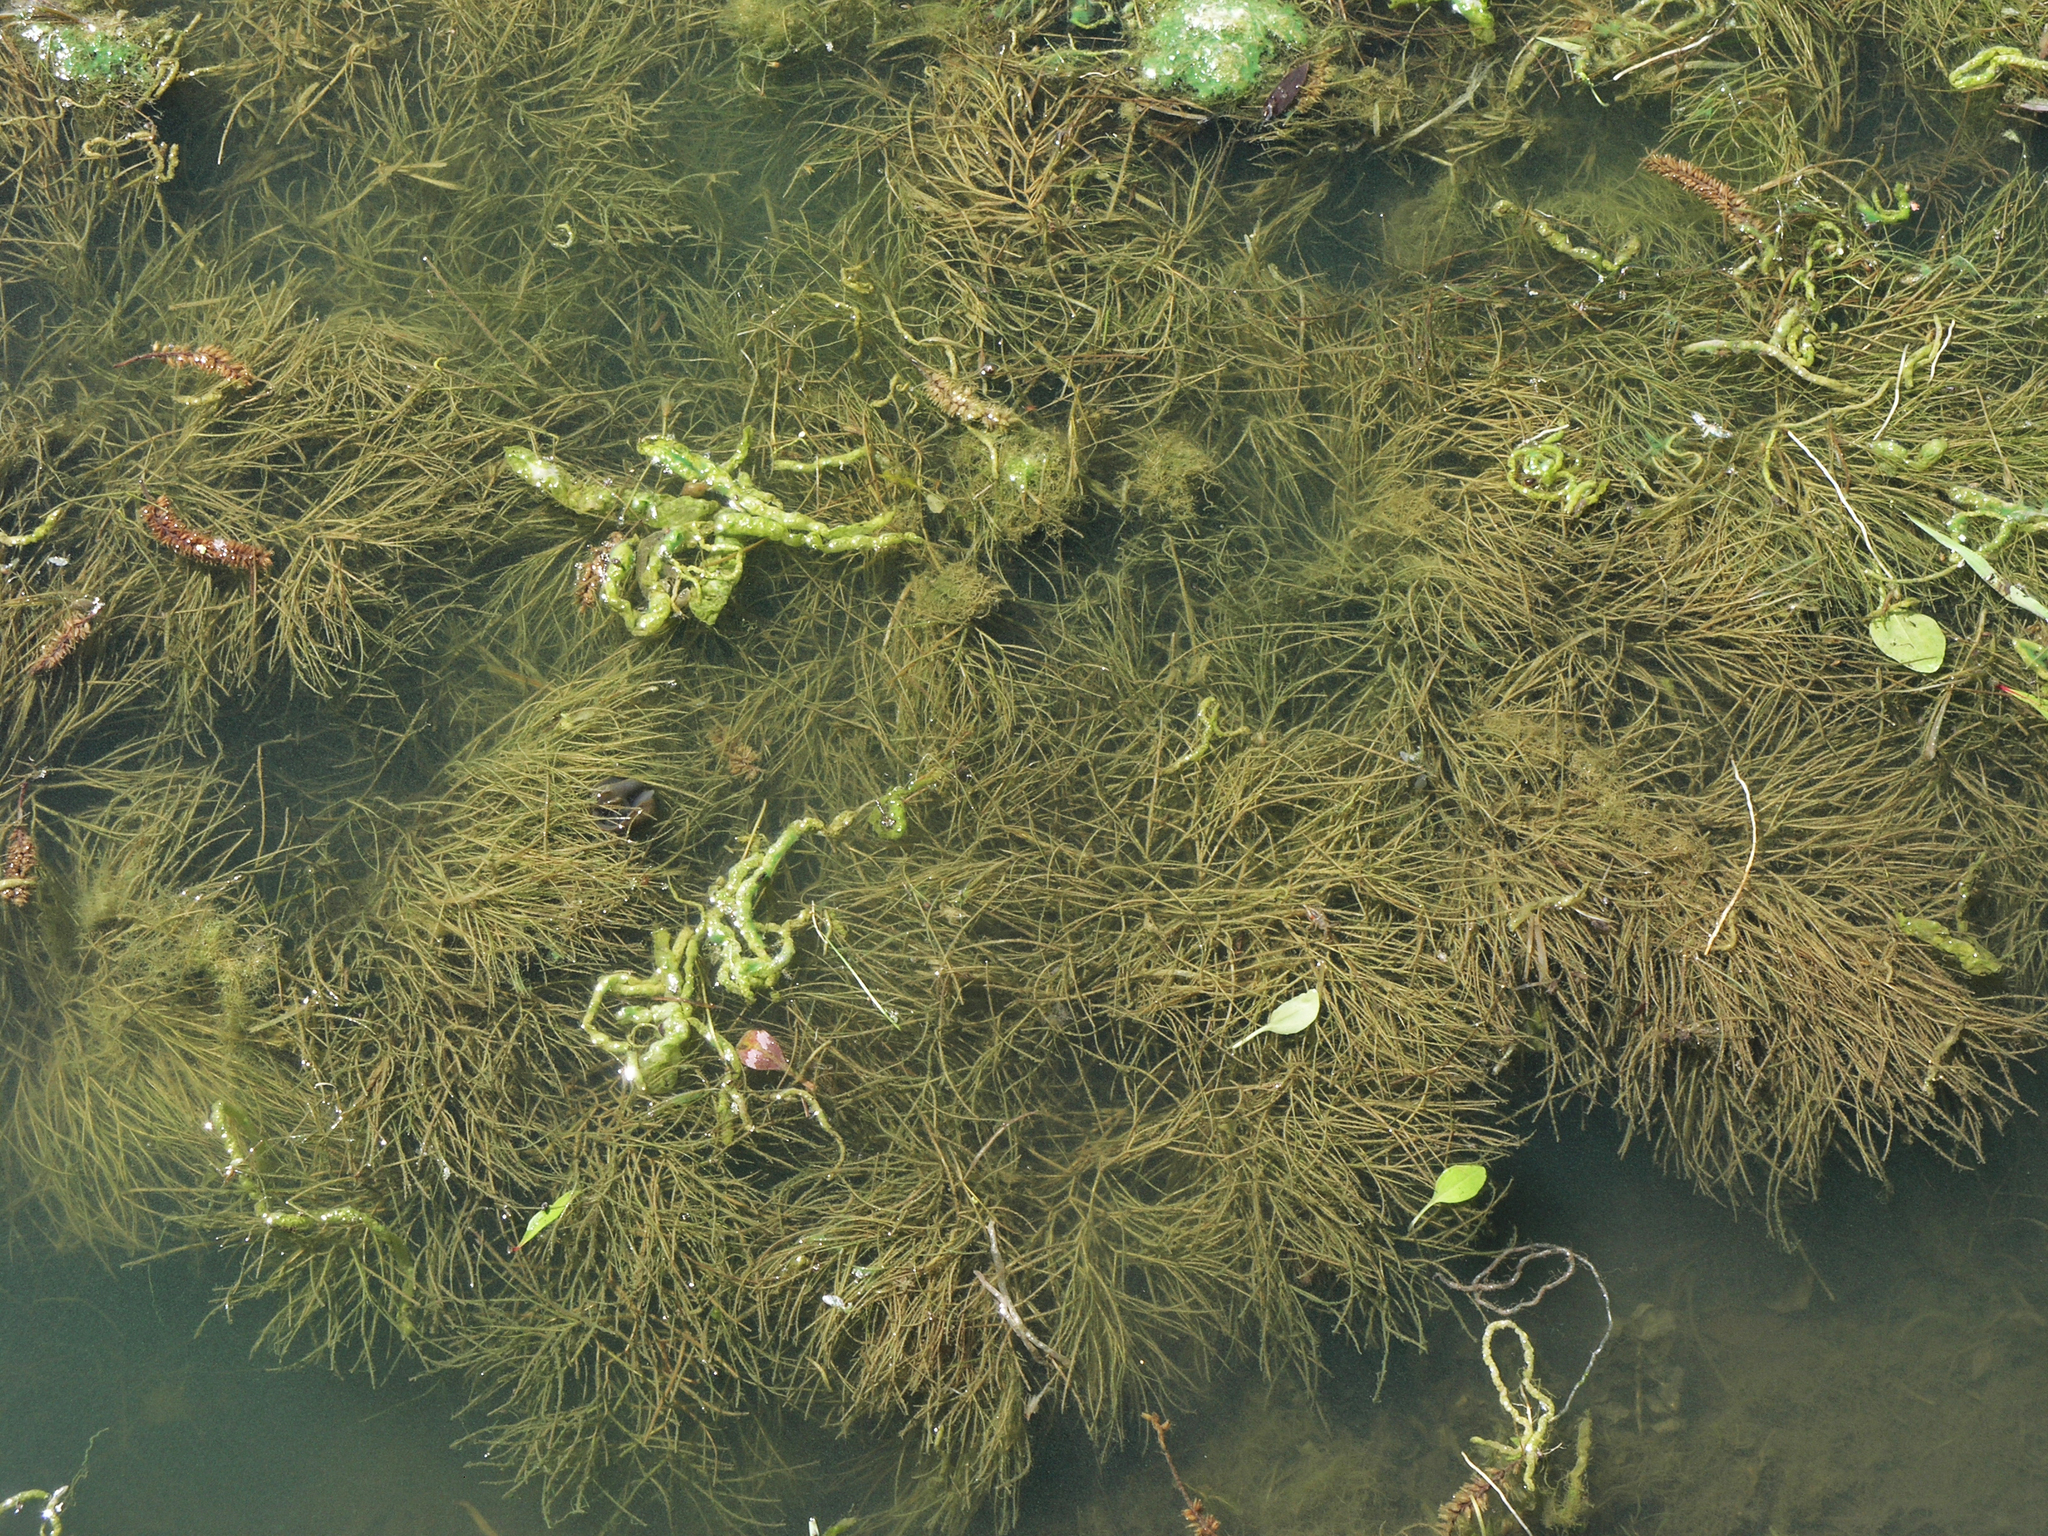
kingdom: Plantae
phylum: Tracheophyta
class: Liliopsida
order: Alismatales
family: Potamogetonaceae
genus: Stuckenia
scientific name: Stuckenia pectinata
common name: Sago pondweed
